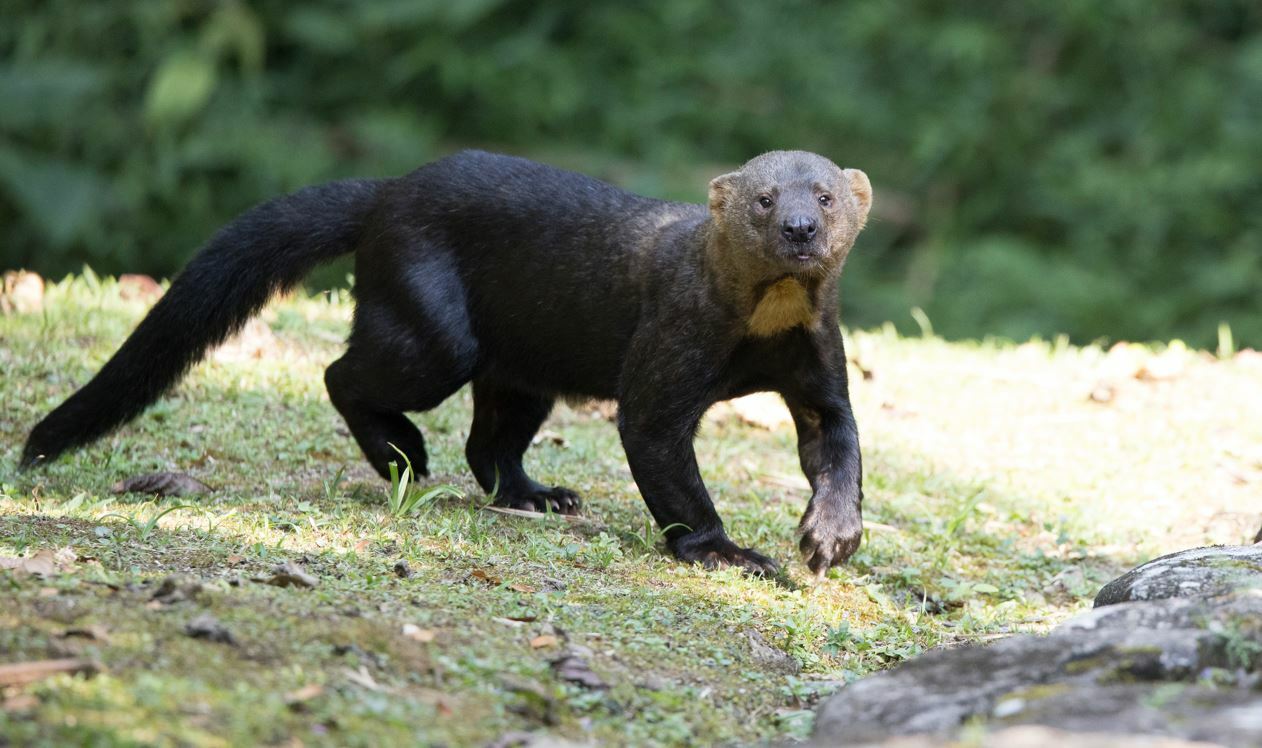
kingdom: Animalia
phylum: Chordata
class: Mammalia
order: Carnivora
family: Mustelidae
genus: Eira
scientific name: Eira barbara
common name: Tayra
